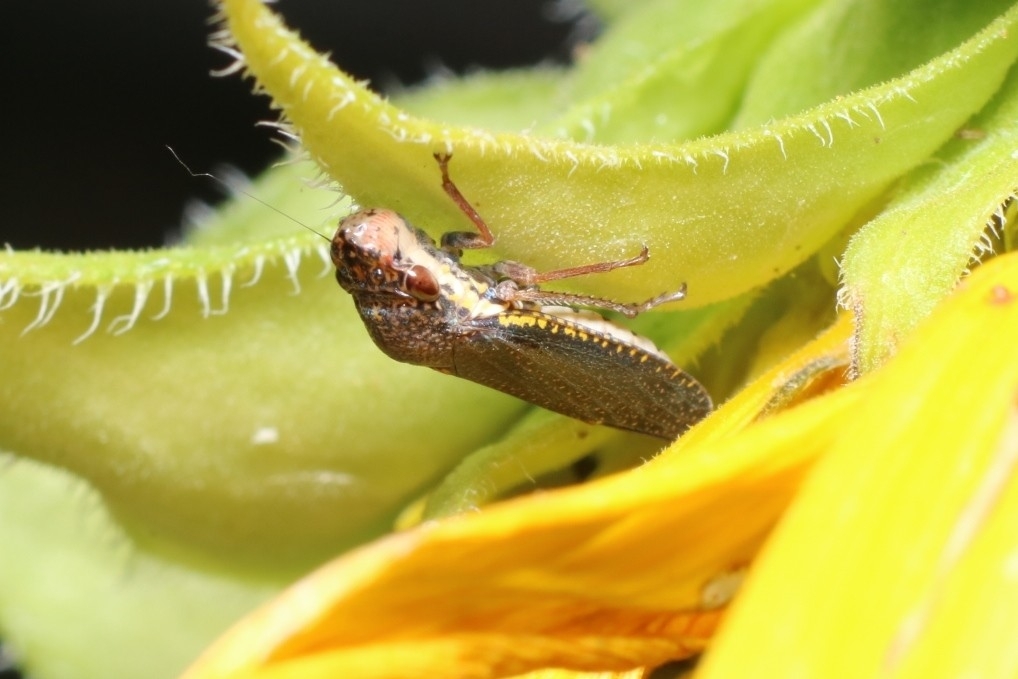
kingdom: Animalia
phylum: Arthropoda
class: Insecta
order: Hemiptera
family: Cicadellidae
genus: Paraulacizes
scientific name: Paraulacizes irrorata
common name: Speckled sharpshooter
